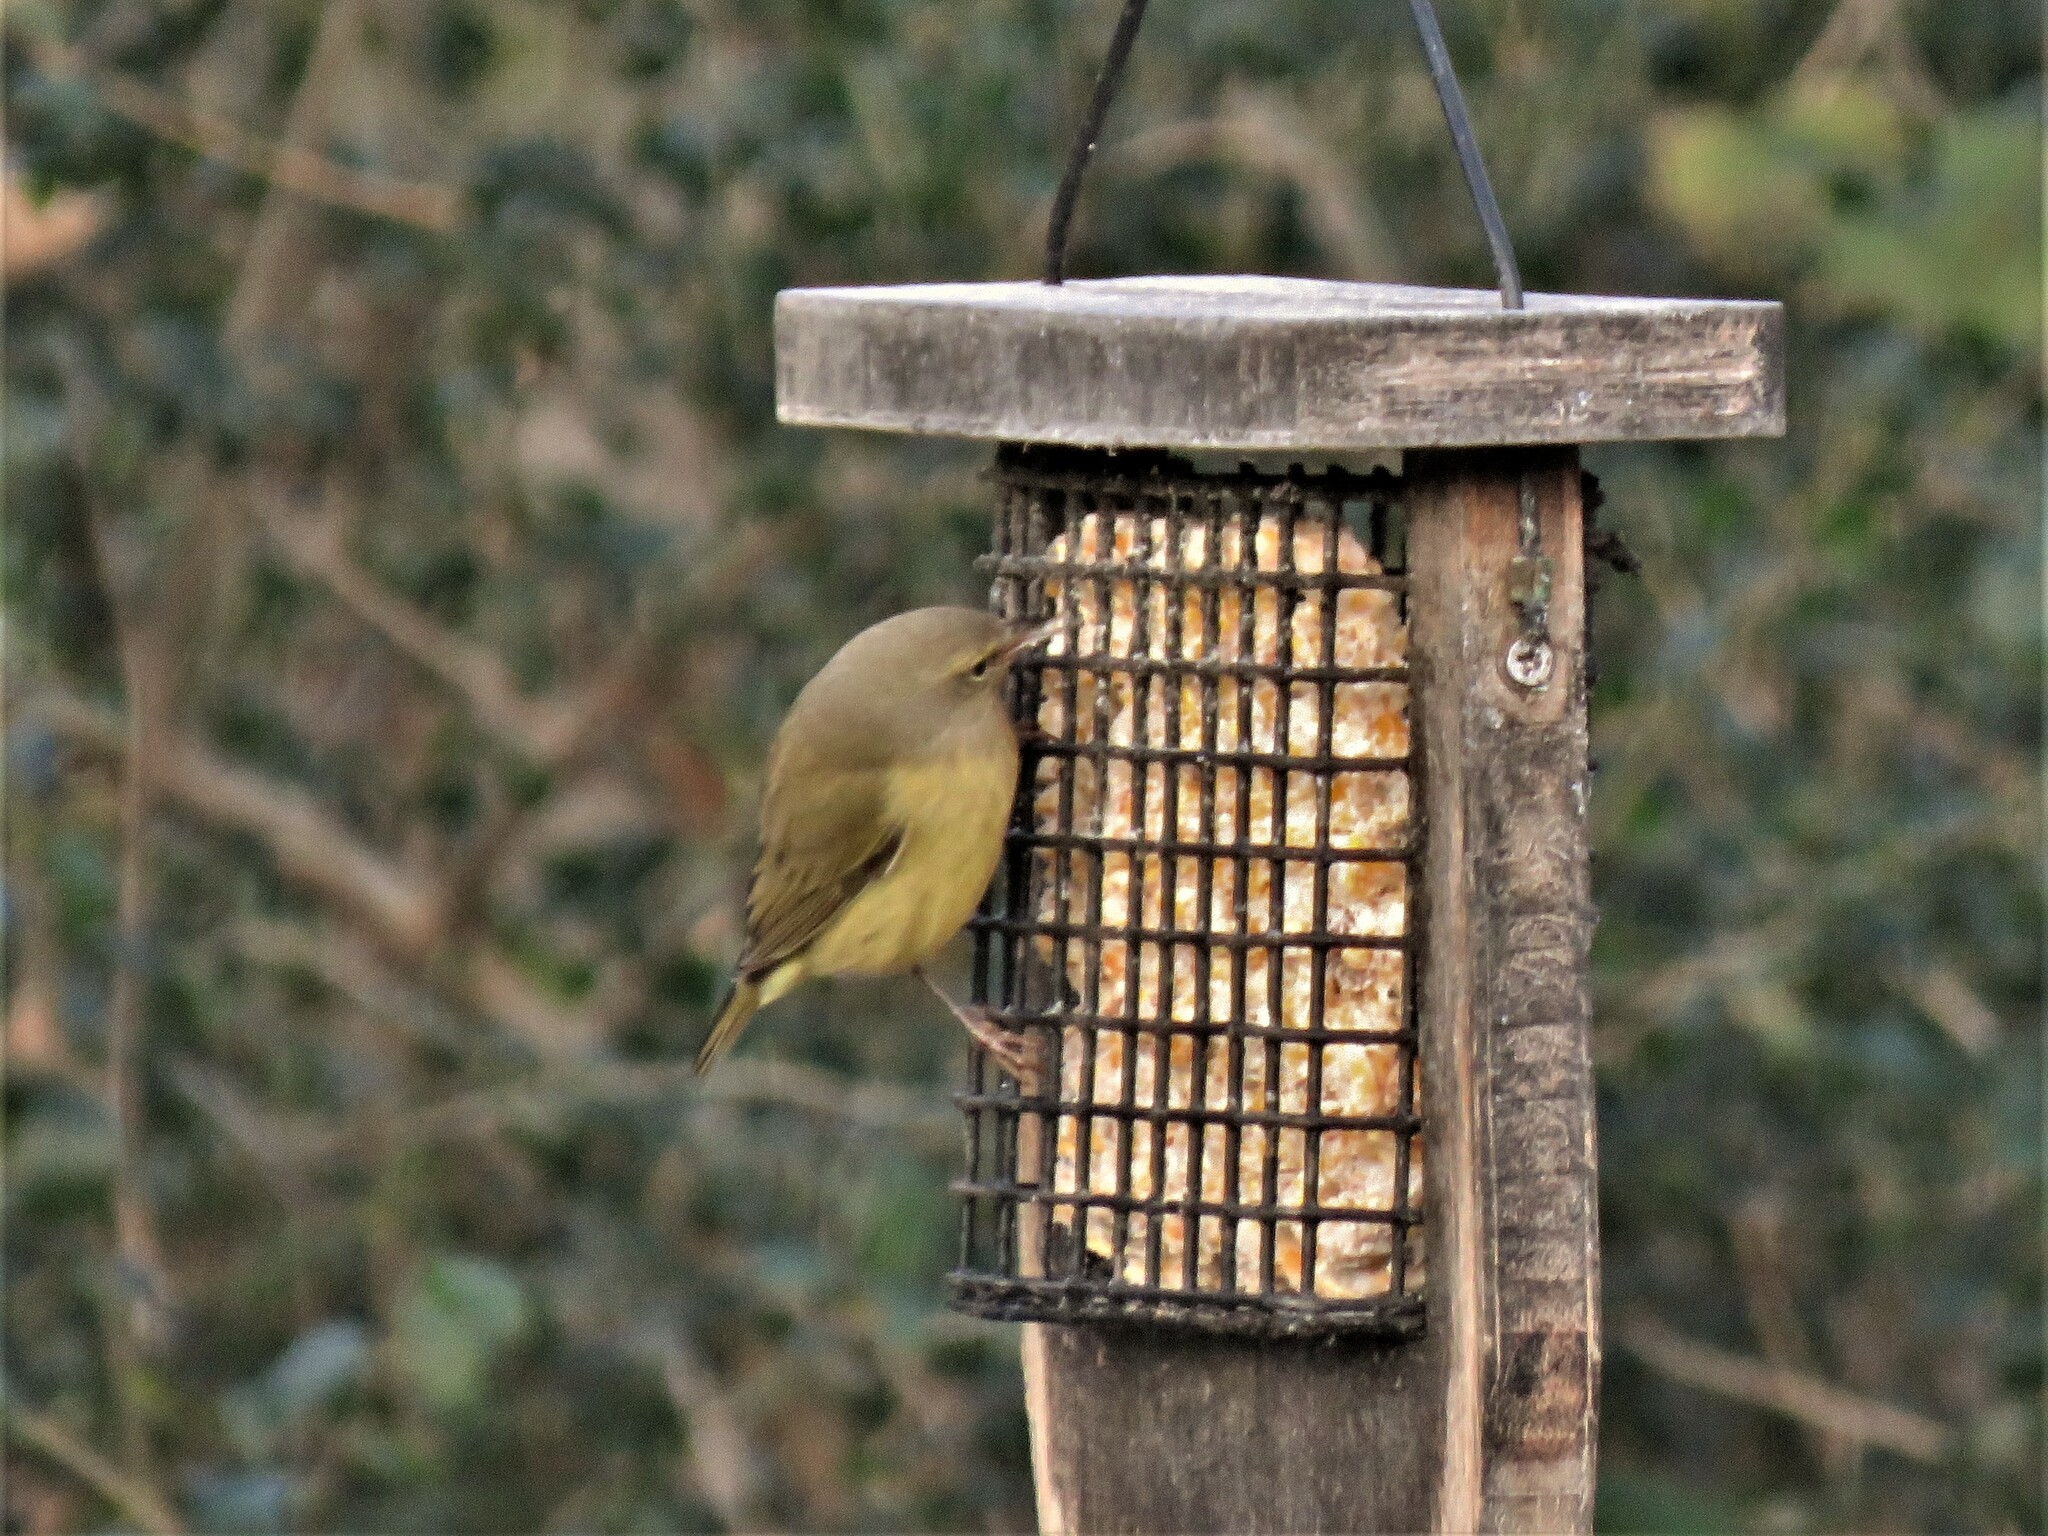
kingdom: Animalia
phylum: Chordata
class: Aves
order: Passeriformes
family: Parulidae
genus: Leiothlypis
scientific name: Leiothlypis celata
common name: Orange-crowned warbler
